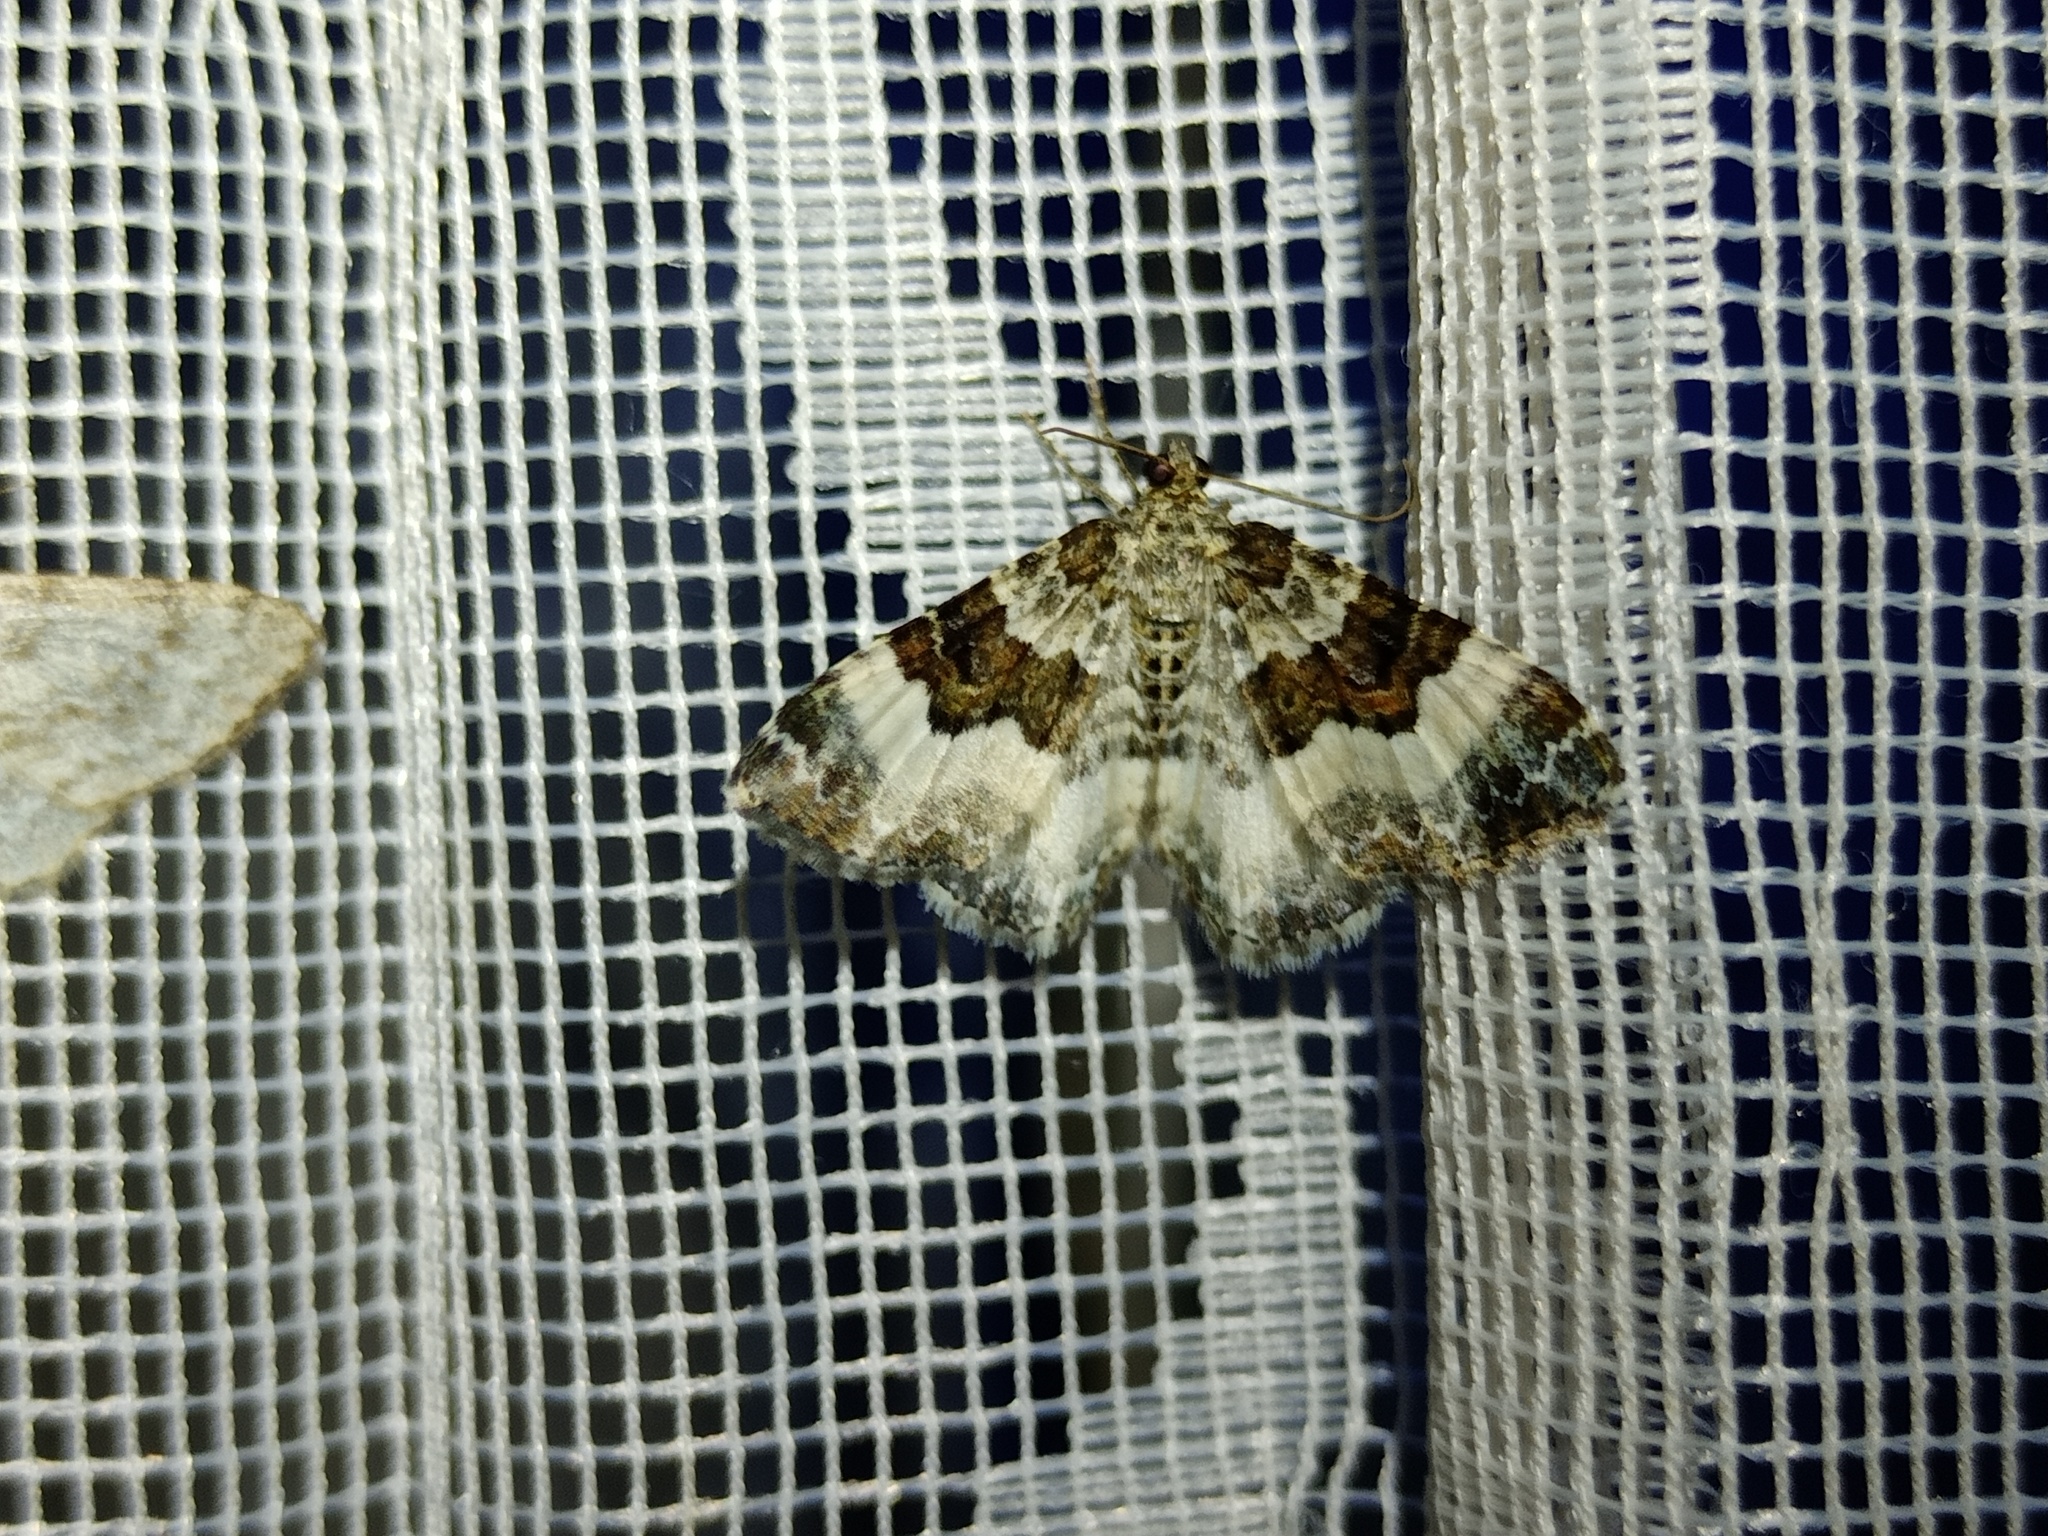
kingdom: Animalia
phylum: Arthropoda
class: Insecta
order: Lepidoptera
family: Geometridae
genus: Epirrhoe
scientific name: Epirrhoe rivata
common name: Wood carpet
